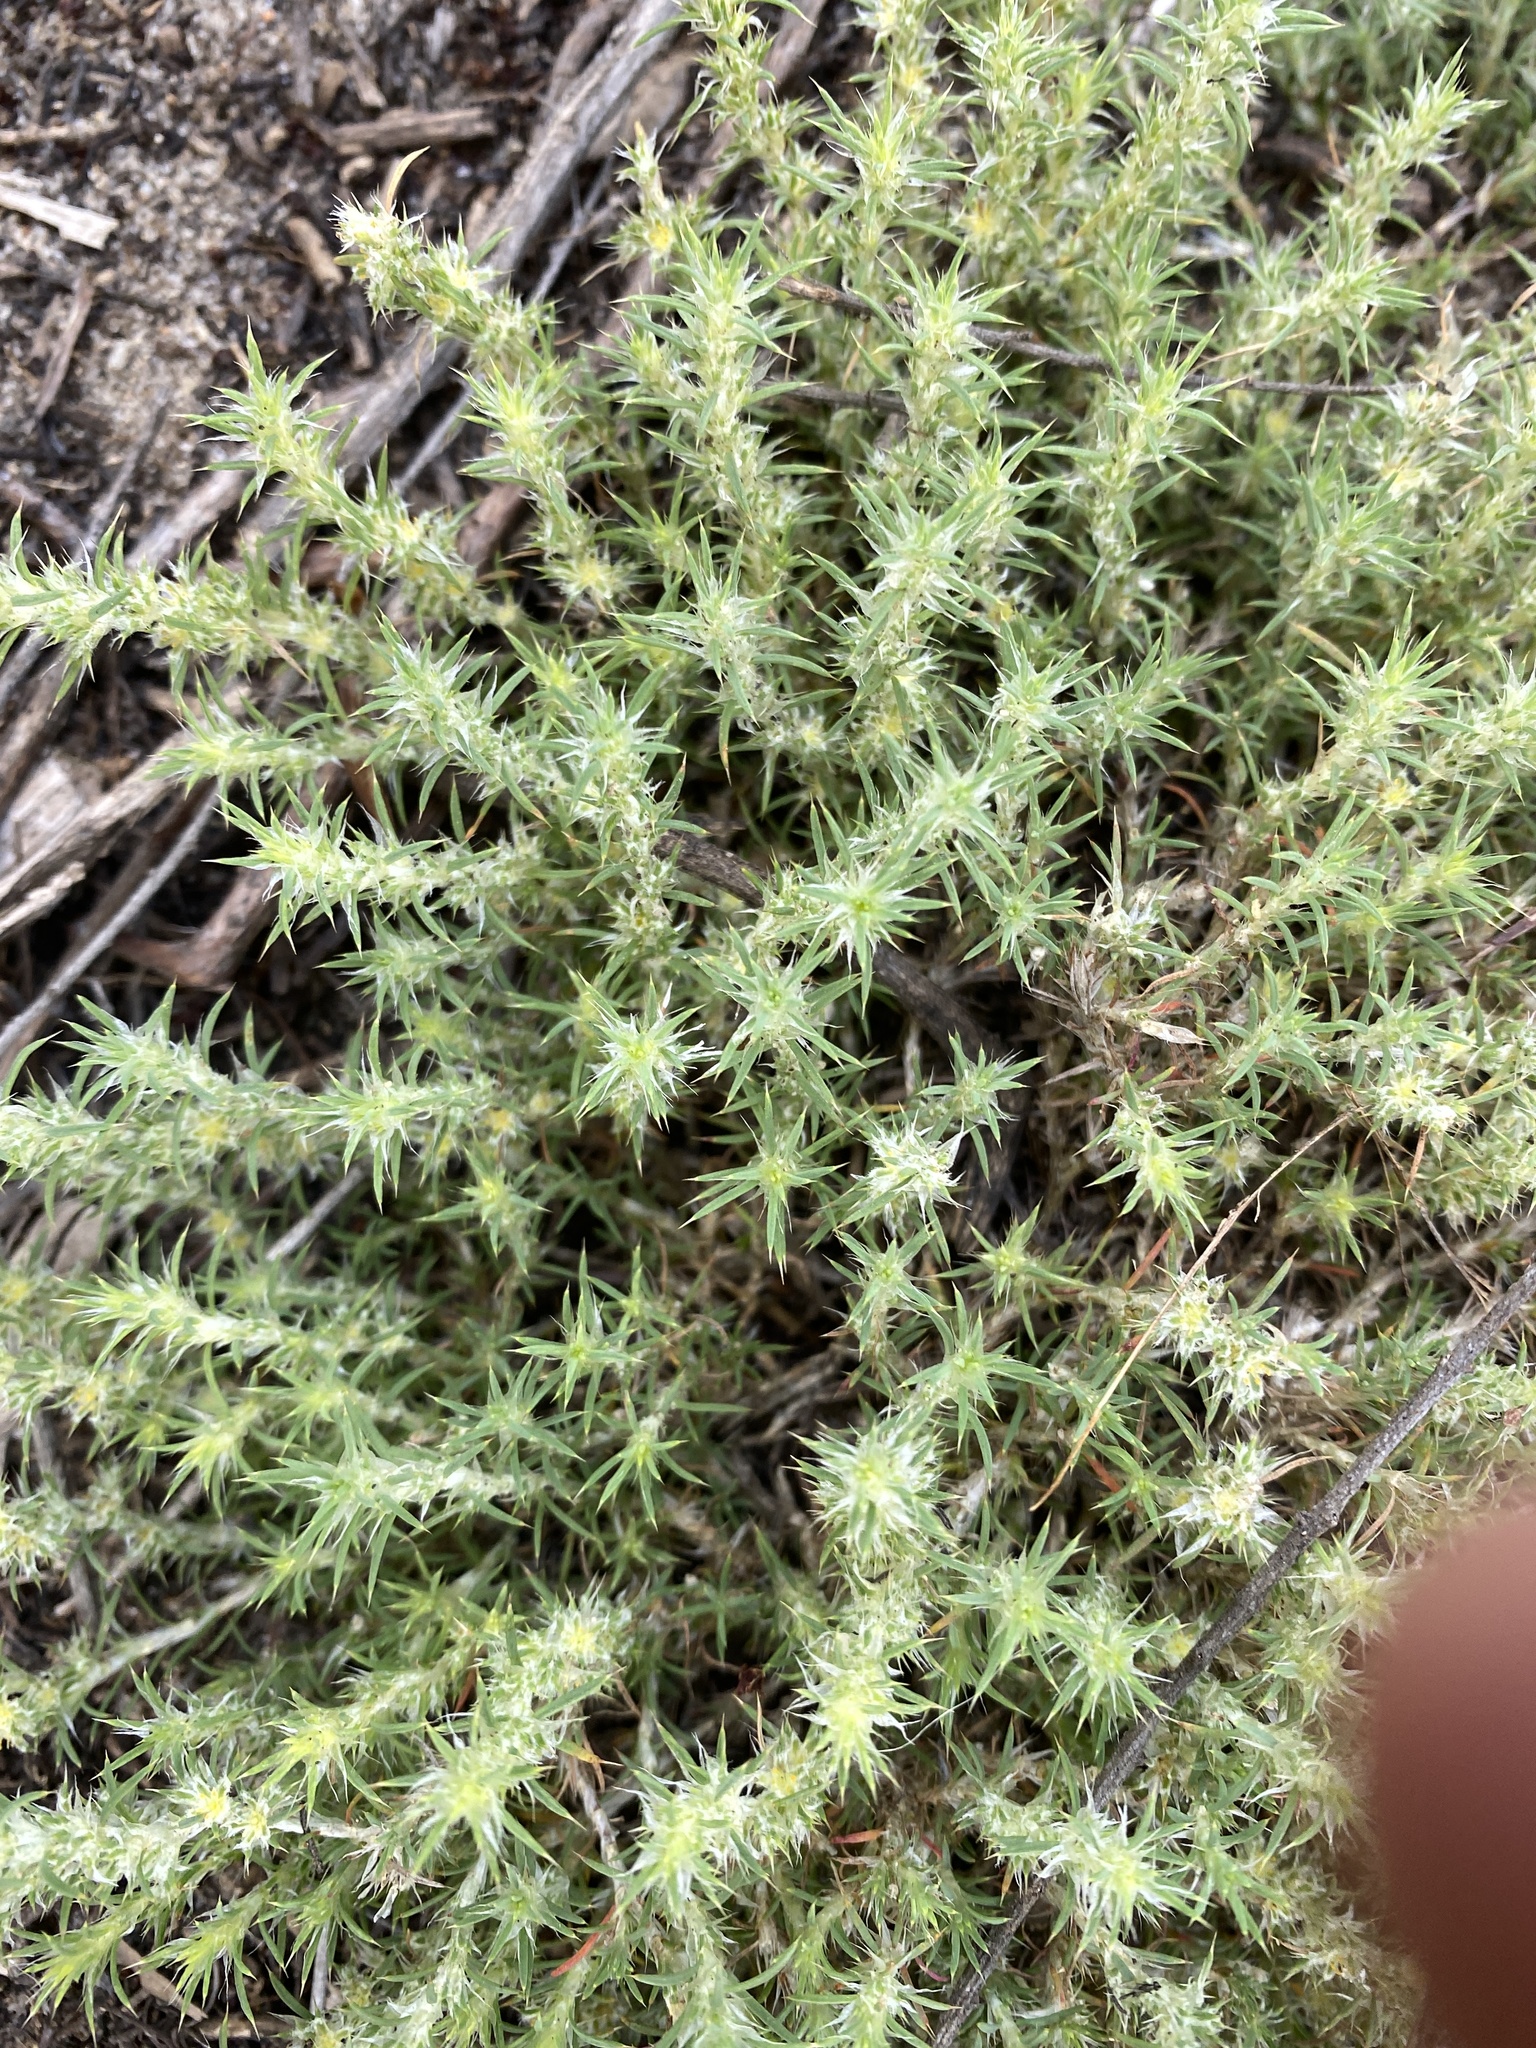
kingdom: Plantae
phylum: Tracheophyta
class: Magnoliopsida
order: Caryophyllales
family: Caryophyllaceae
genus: Cardionema
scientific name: Cardionema ramosissima
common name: Sandcarpet
